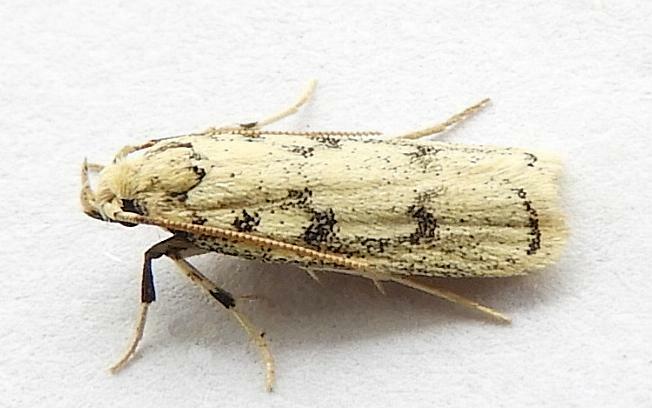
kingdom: Animalia
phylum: Arthropoda
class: Insecta
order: Lepidoptera
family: Autostichidae
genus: Glyphidocera
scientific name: Glyphidocera lactiflosella
